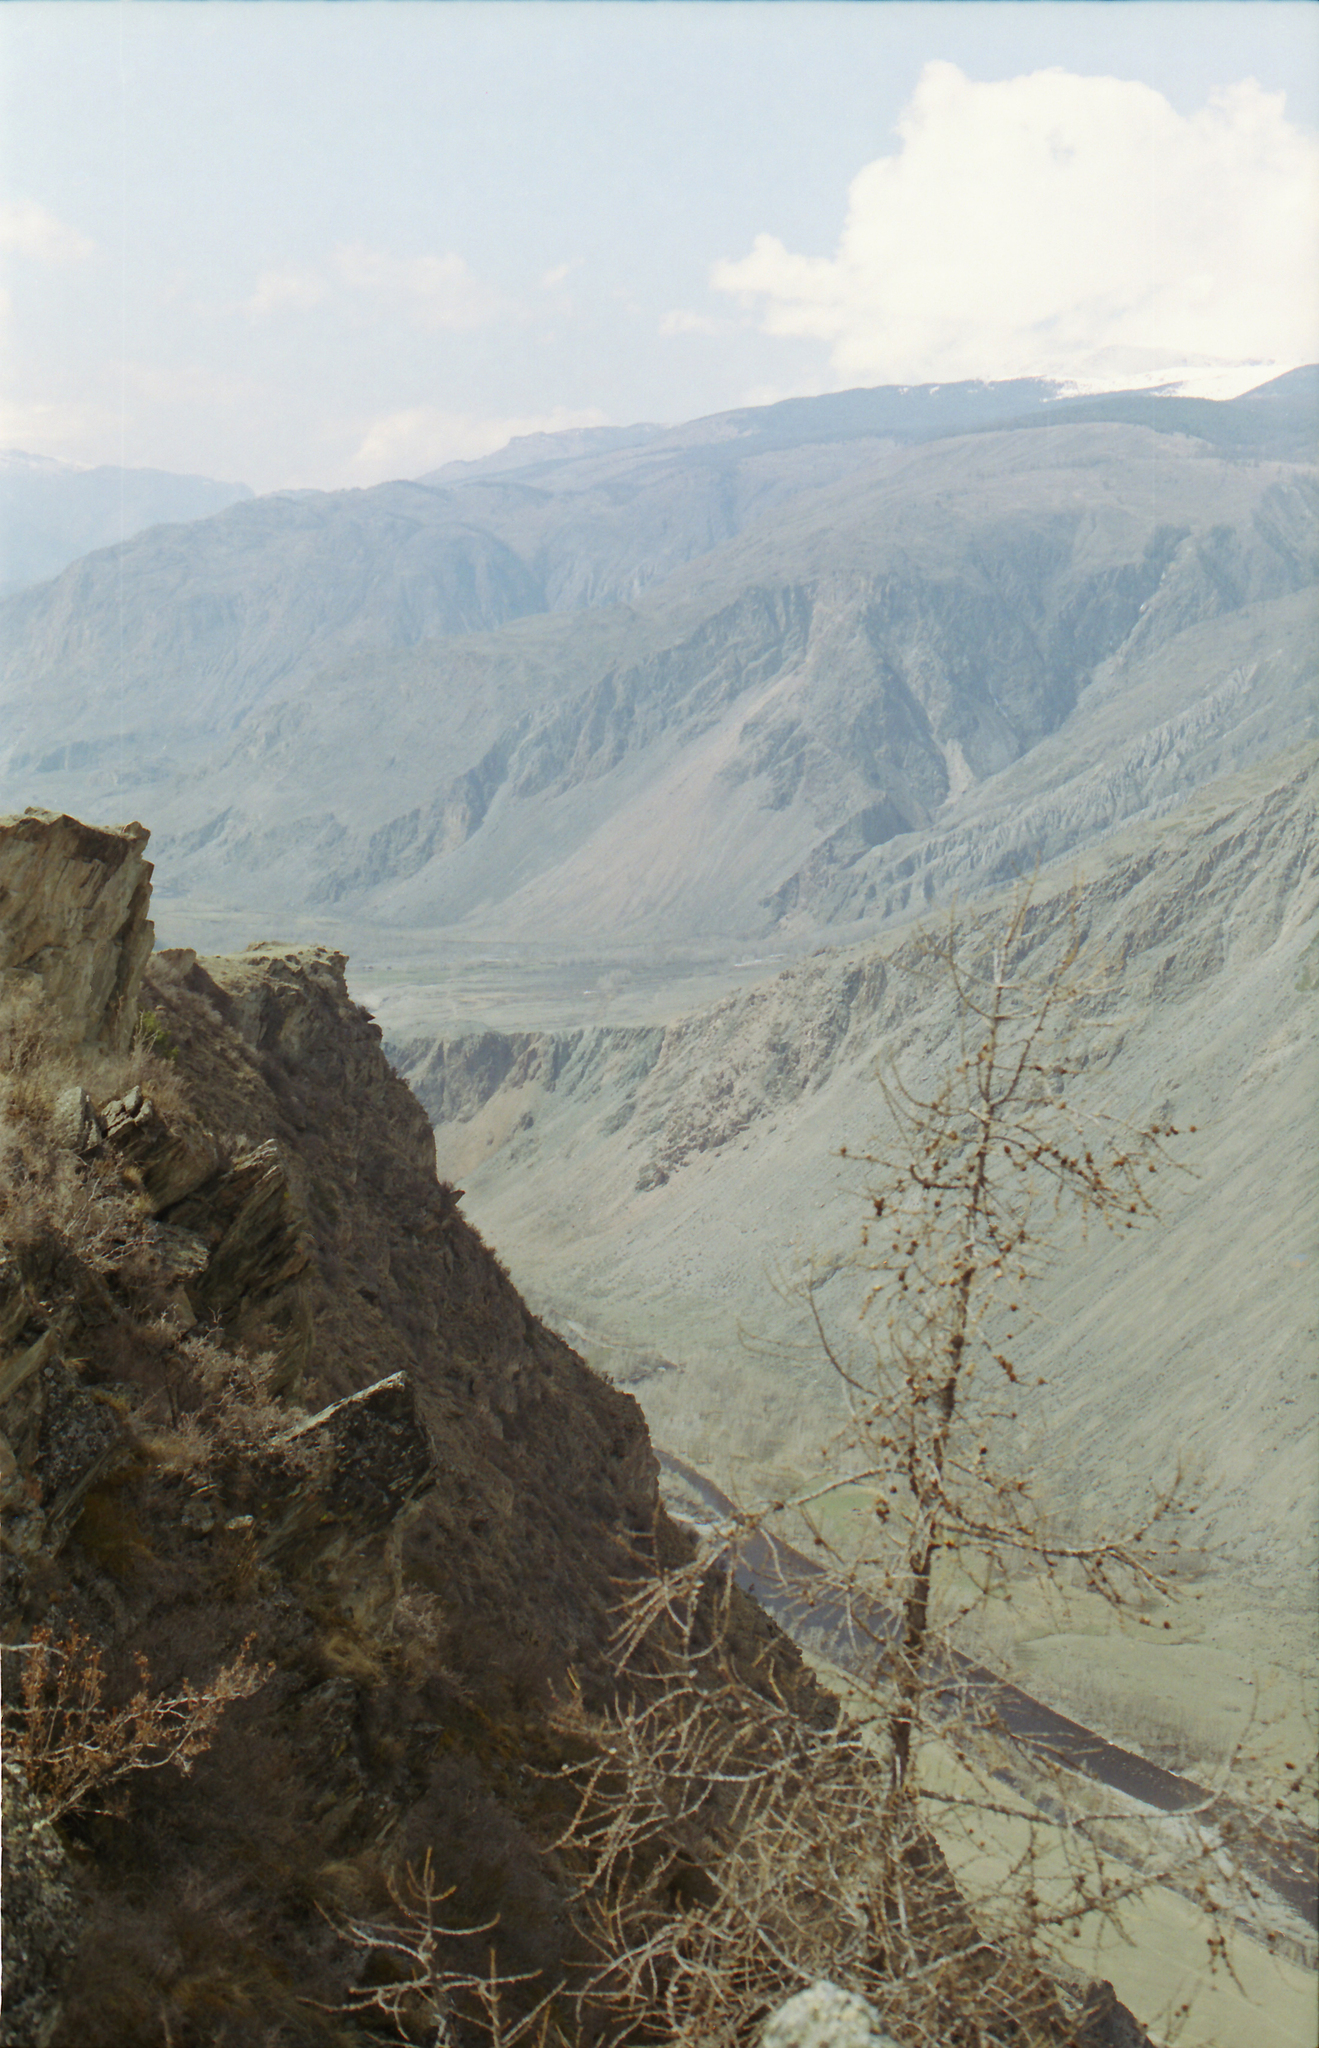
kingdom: Plantae
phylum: Tracheophyta
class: Pinopsida
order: Pinales
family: Pinaceae
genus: Larix
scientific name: Larix sibirica
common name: Siberian larch
